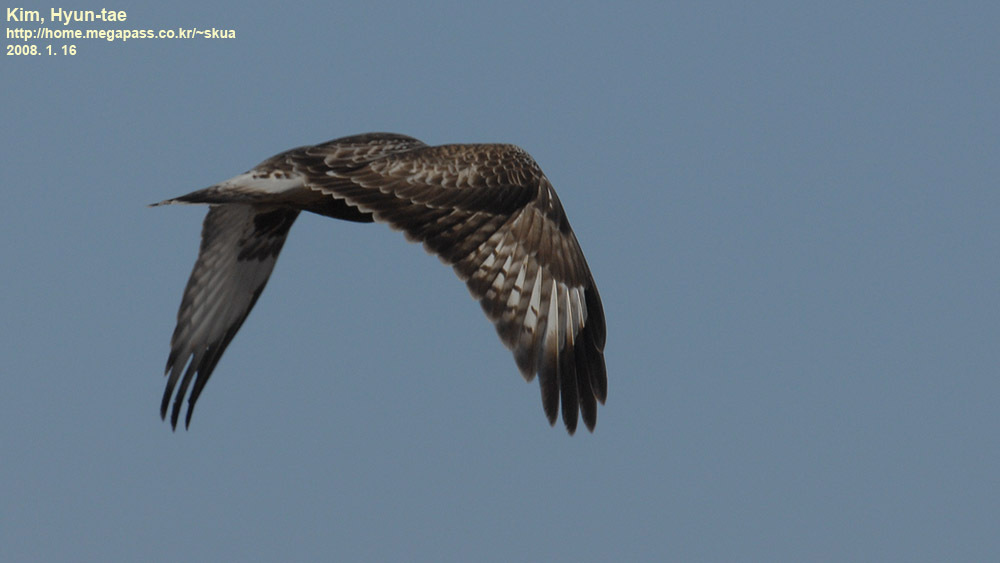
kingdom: Animalia
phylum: Chordata
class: Aves
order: Accipitriformes
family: Accipitridae
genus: Buteo
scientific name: Buteo lagopus
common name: Rough-legged buzzard
